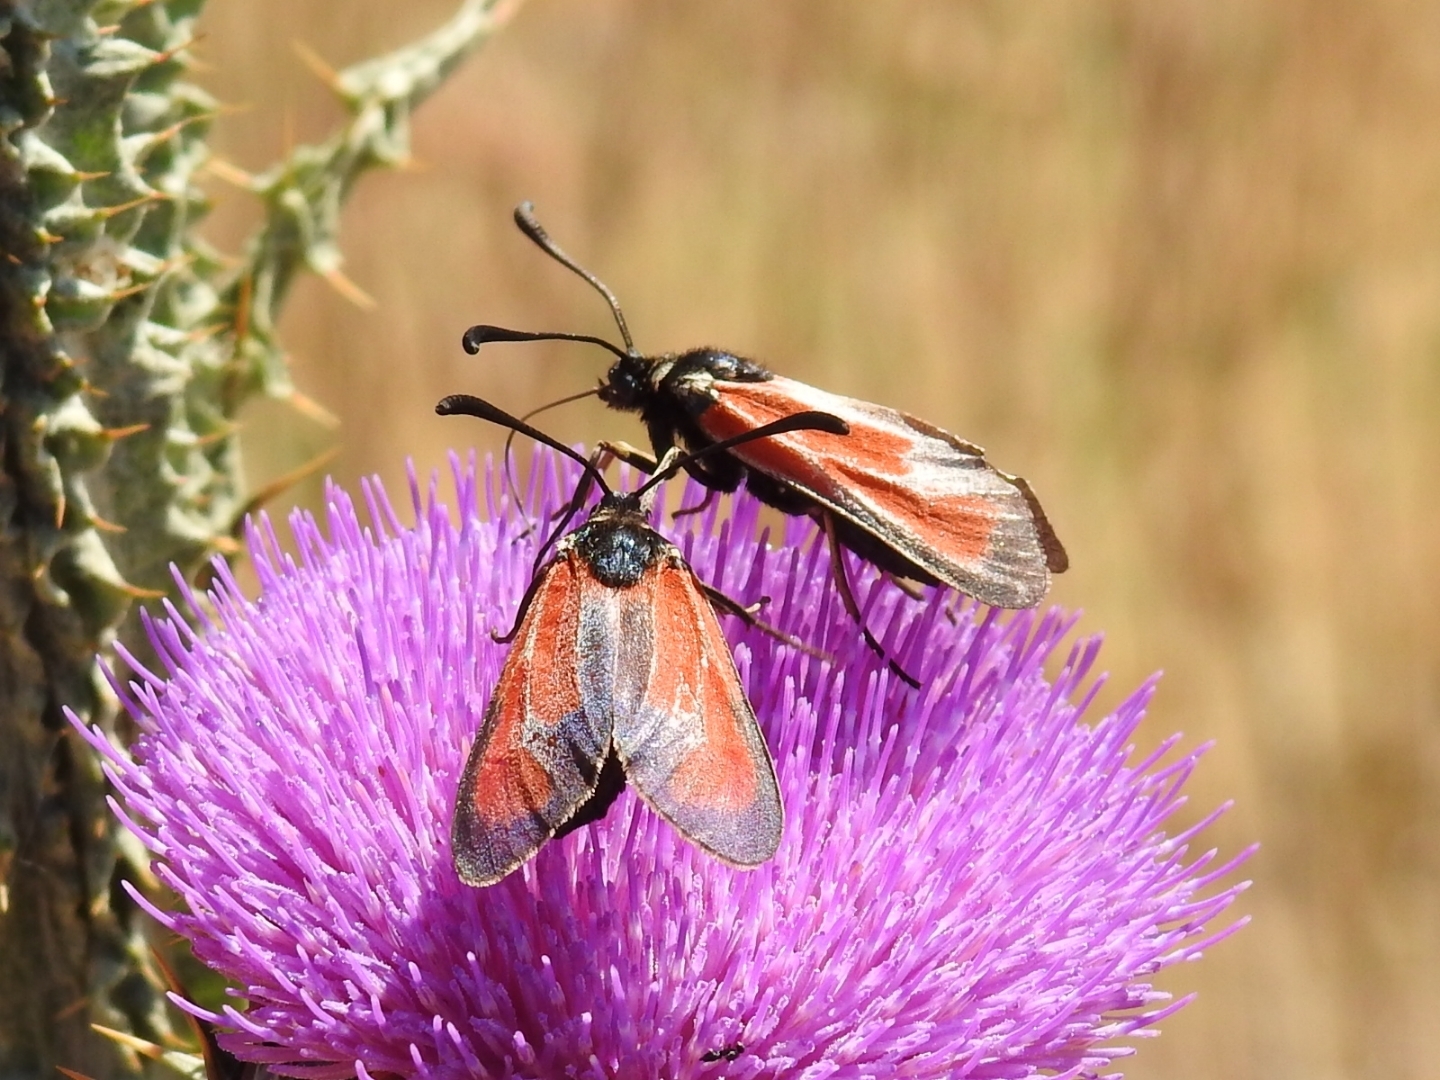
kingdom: Animalia
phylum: Arthropoda
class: Insecta
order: Lepidoptera
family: Zygaenidae
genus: Zygaena
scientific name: Zygaena erythrus
